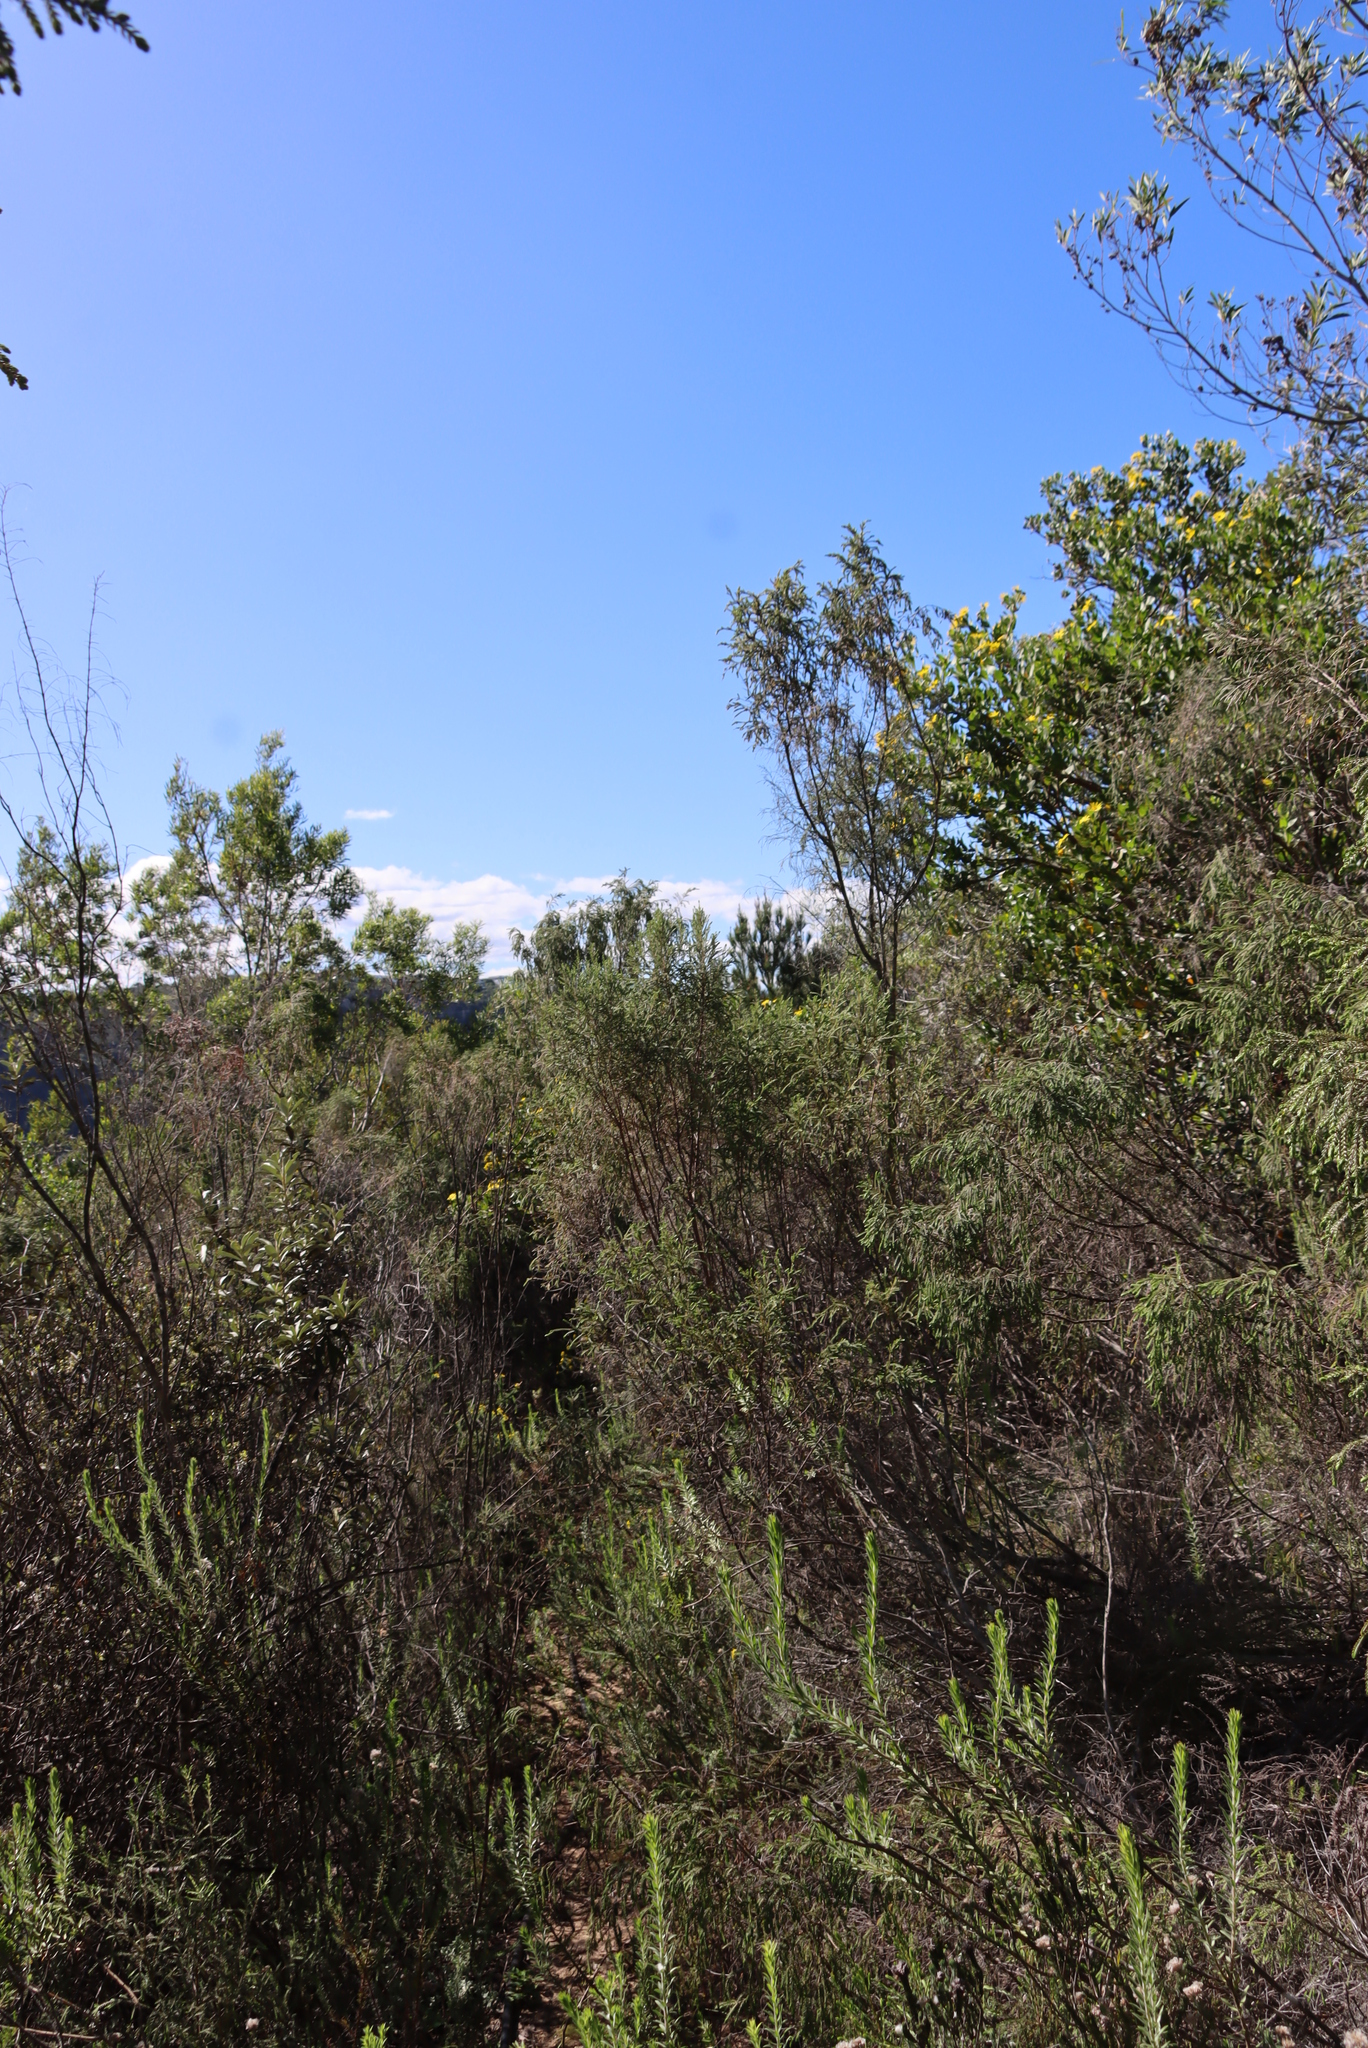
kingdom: Plantae
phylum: Tracheophyta
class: Magnoliopsida
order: Malvales
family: Thymelaeaceae
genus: Passerina
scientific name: Passerina falcifolia
